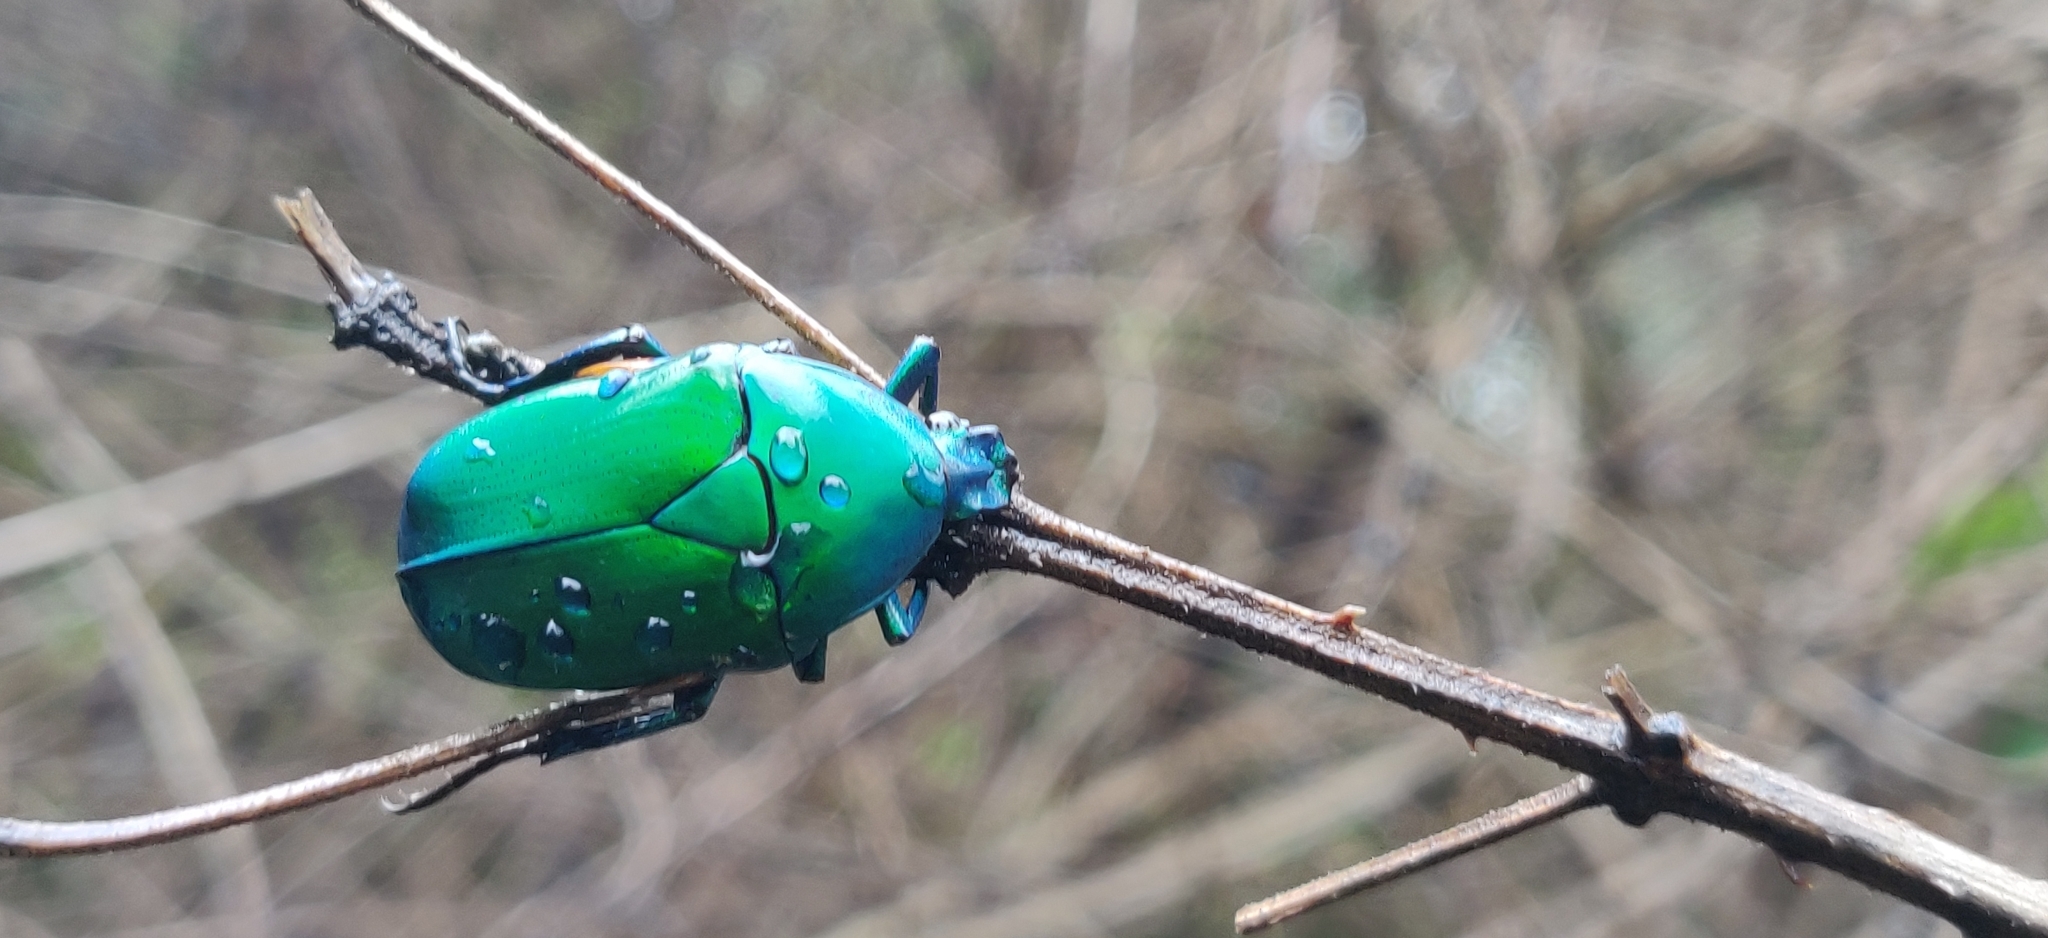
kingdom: Animalia
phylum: Arthropoda
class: Insecta
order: Coleoptera
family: Scarabaeidae
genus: Ptychodesthes
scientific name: Ptychodesthes Heterorrhina elegans
